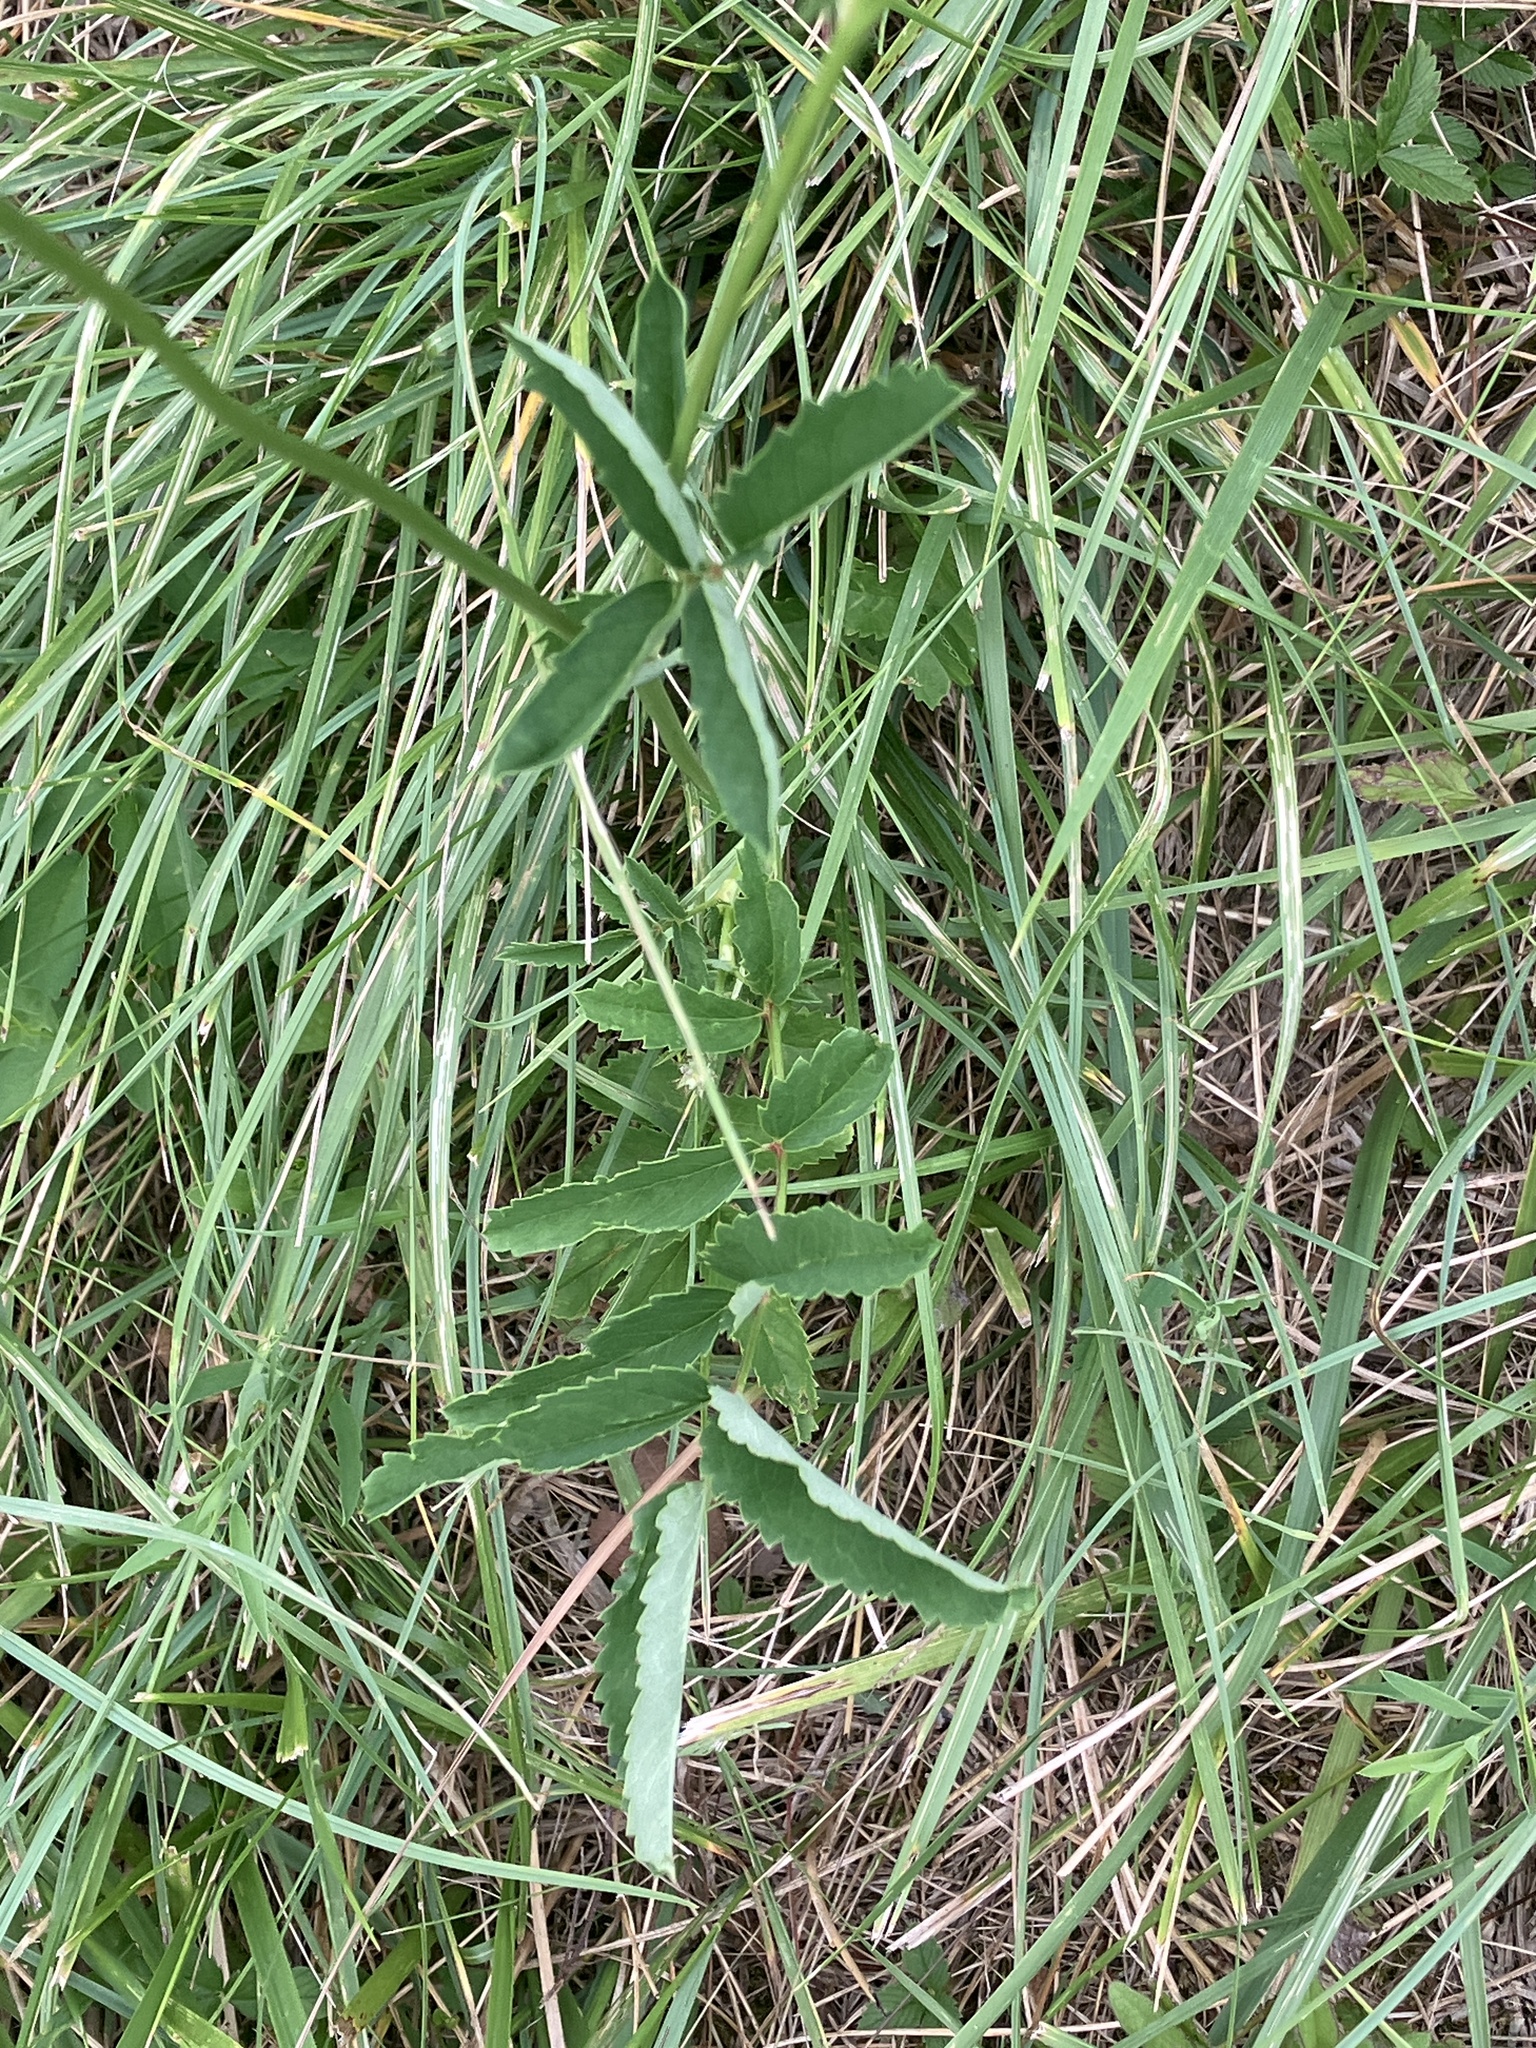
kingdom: Plantae
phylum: Tracheophyta
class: Magnoliopsida
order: Rosales
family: Rosaceae
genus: Sanguisorba
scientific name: Sanguisorba officinalis
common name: Great burnet
